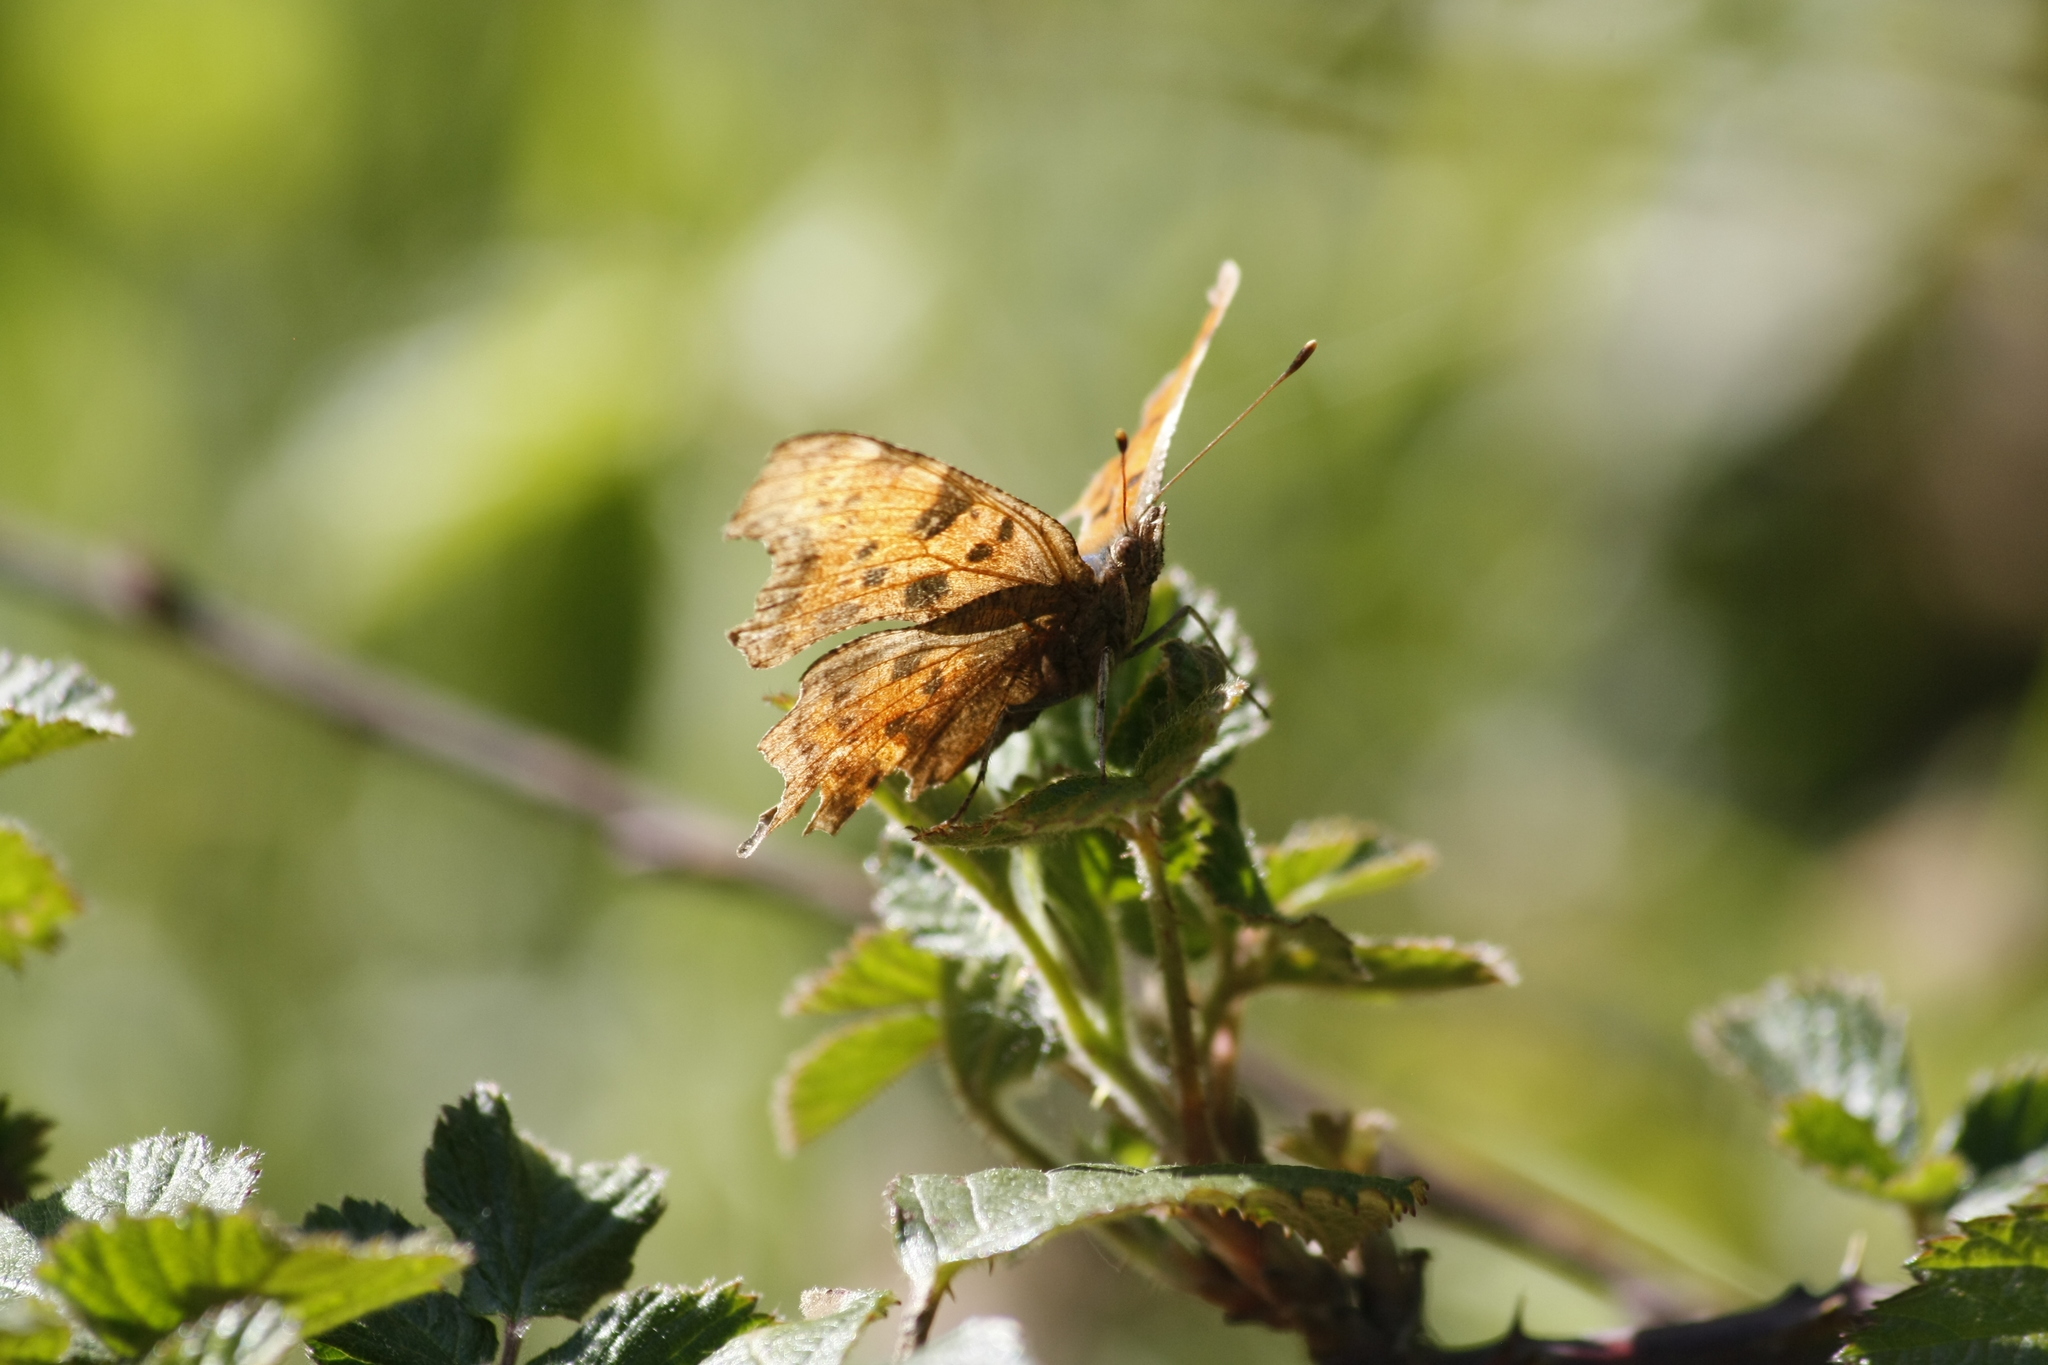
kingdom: Animalia
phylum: Arthropoda
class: Insecta
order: Lepidoptera
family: Nymphalidae
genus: Polygonia
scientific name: Polygonia c-album
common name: Comma
